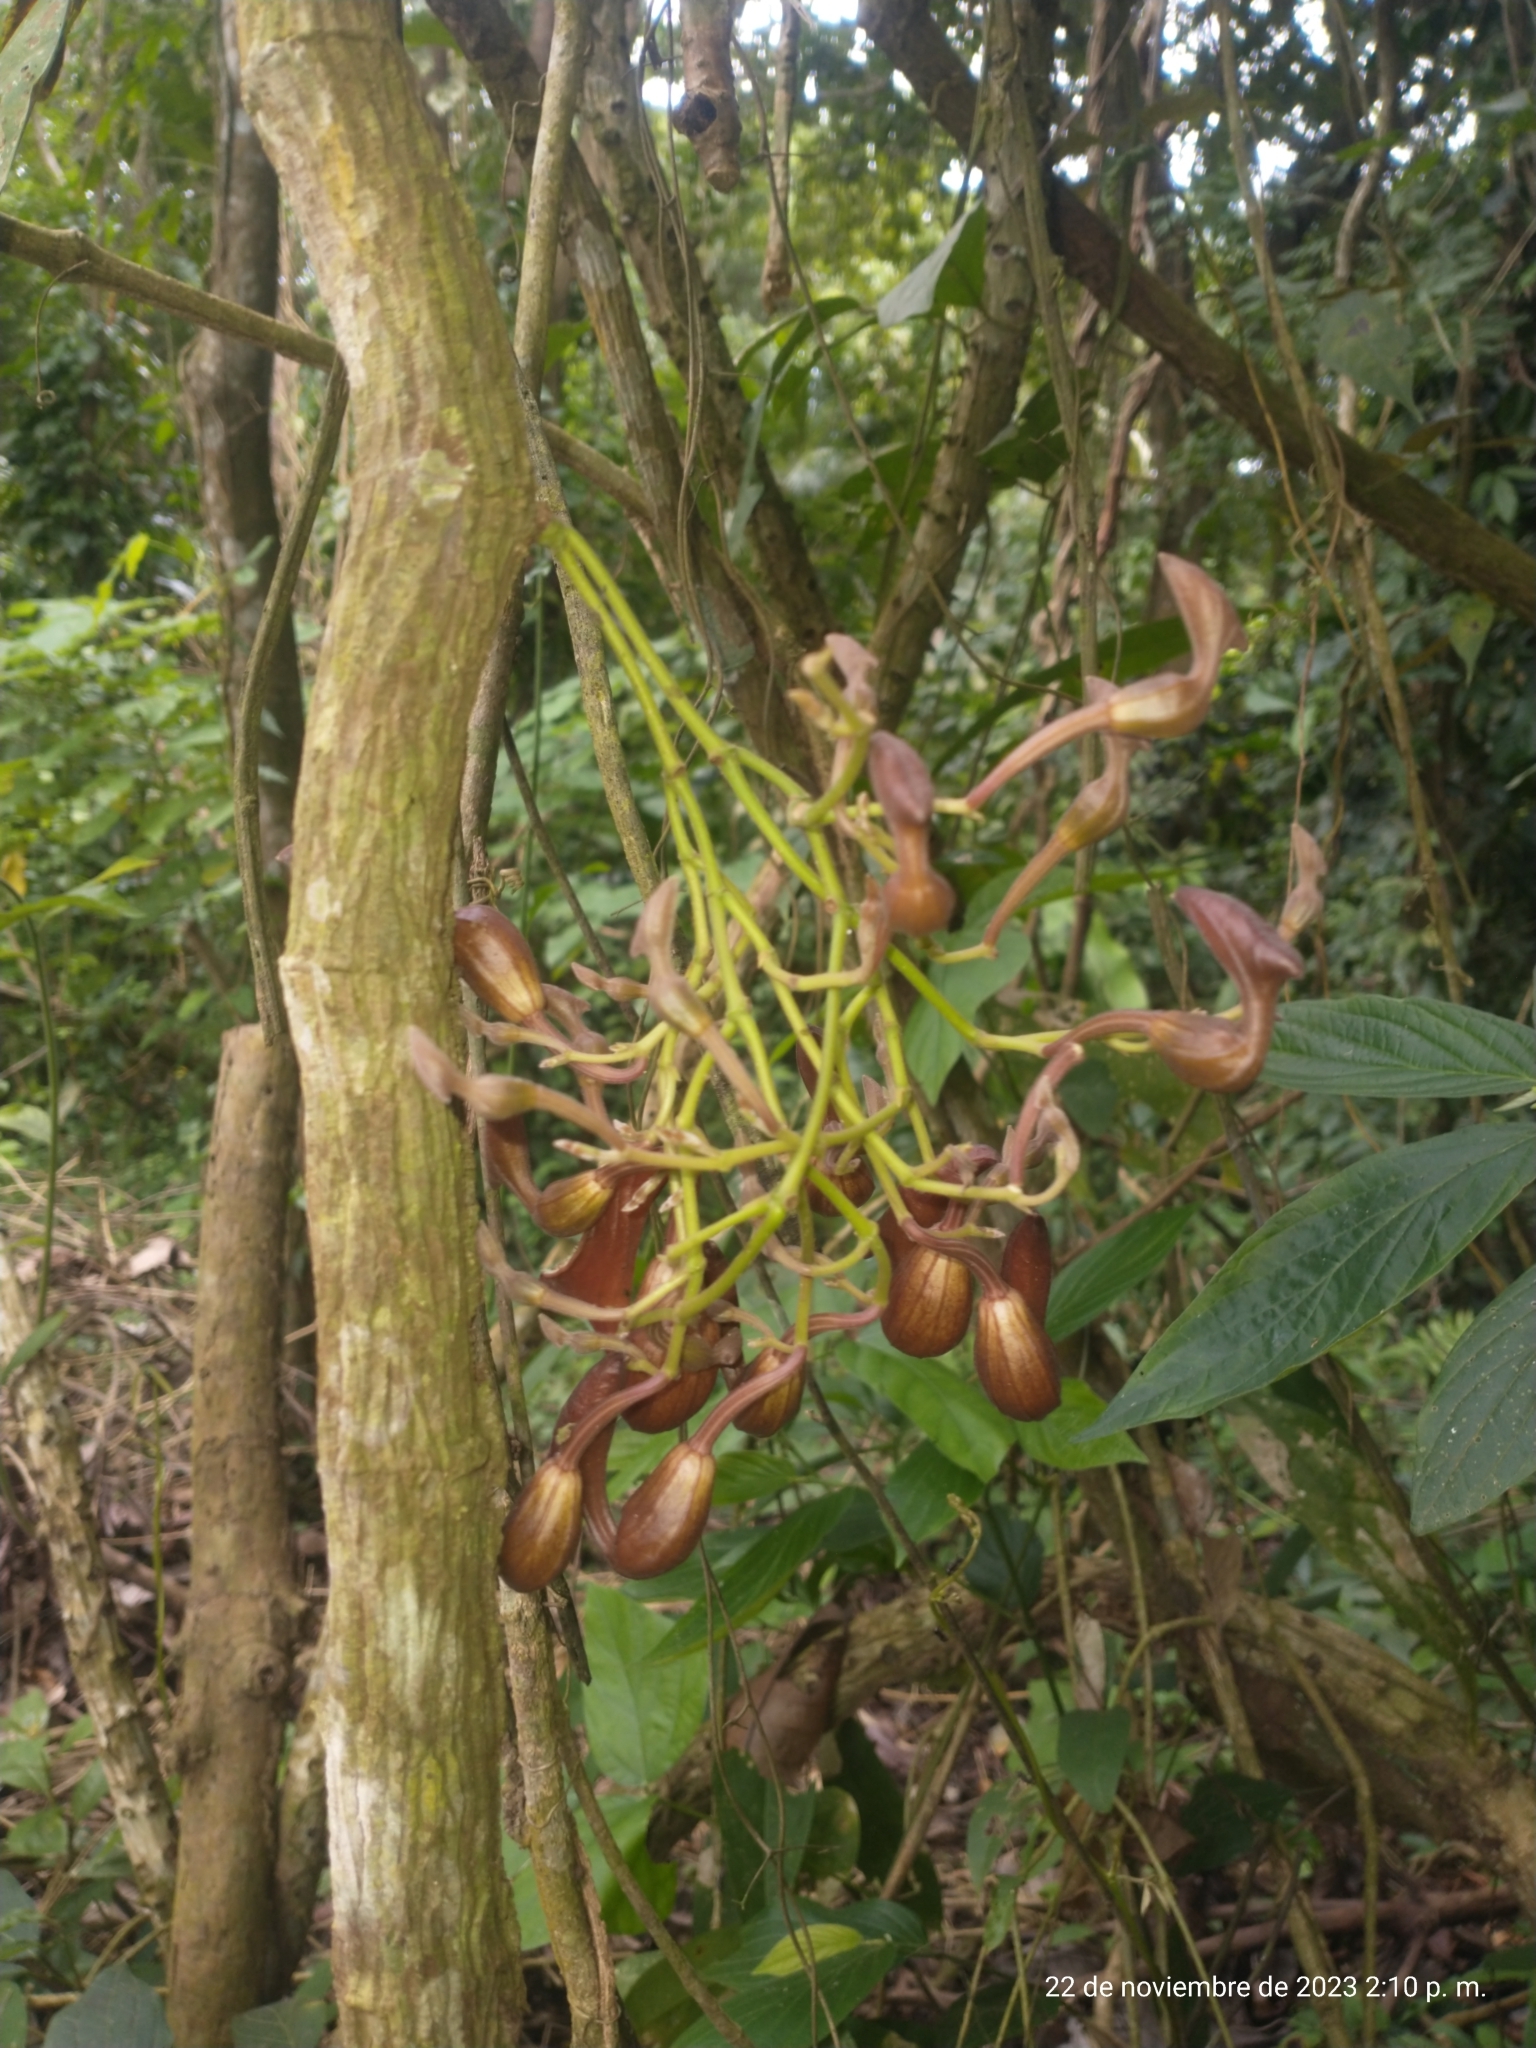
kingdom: Plantae
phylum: Tracheophyta
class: Magnoliopsida
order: Piperales
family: Aristolochiaceae
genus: Aristolochia
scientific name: Aristolochia maxima
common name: Florida dutchman's pipe
